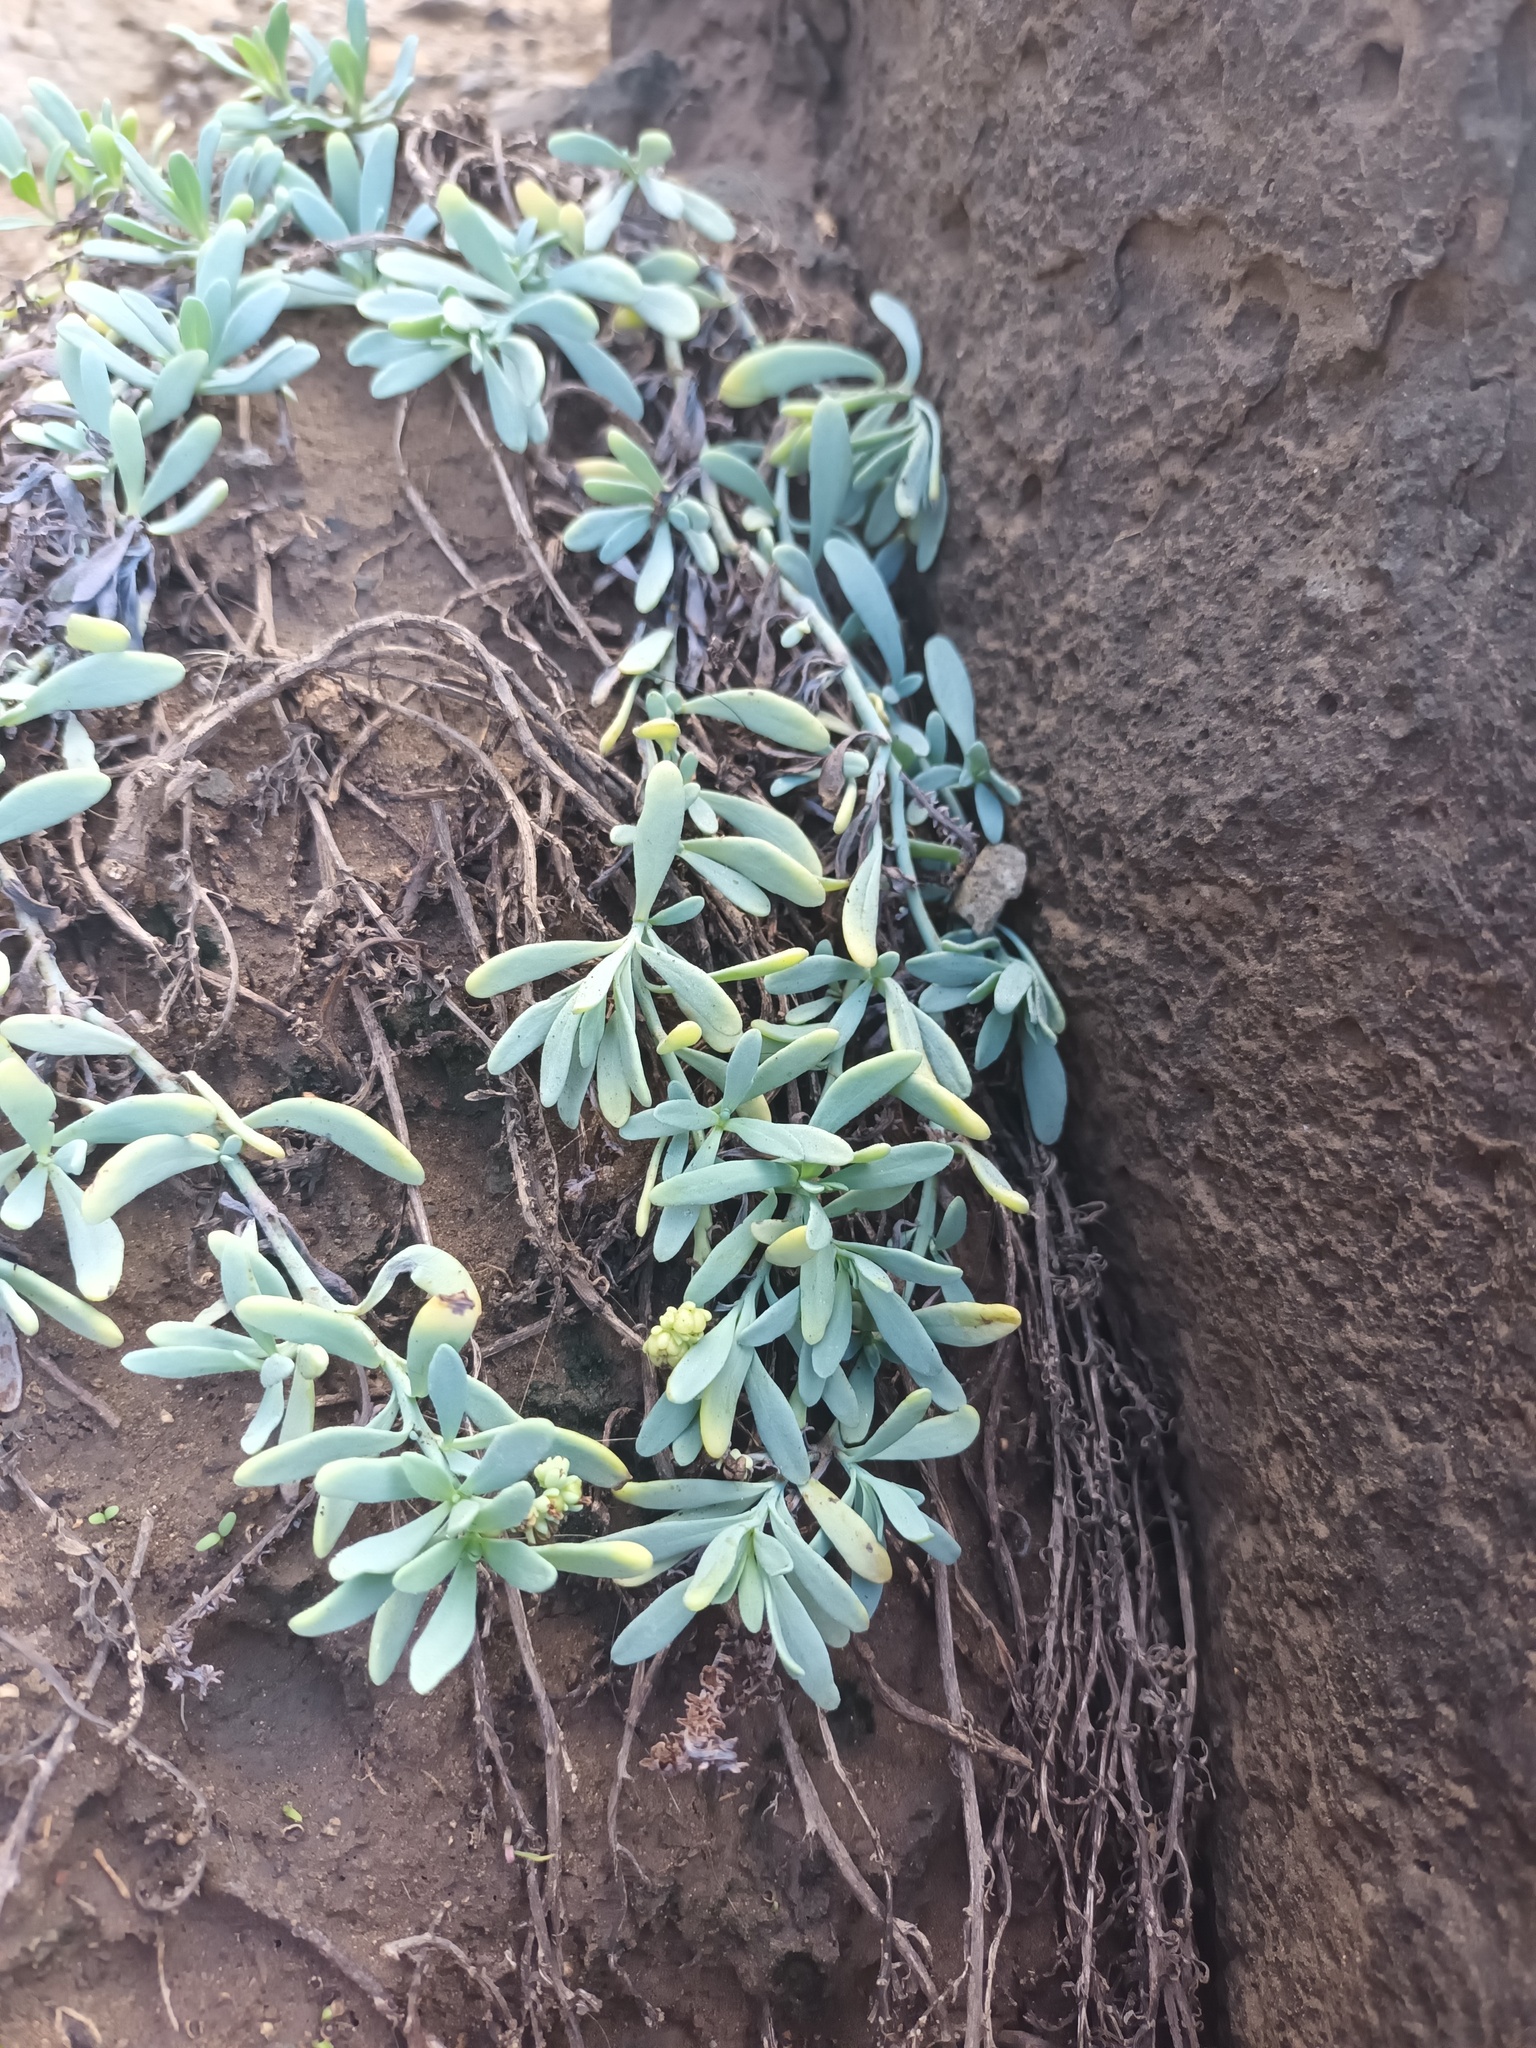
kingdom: Plantae
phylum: Tracheophyta
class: Magnoliopsida
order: Boraginales
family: Heliotropiaceae
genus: Heliotropium
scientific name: Heliotropium curassavicum
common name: Seaside heliotrope
